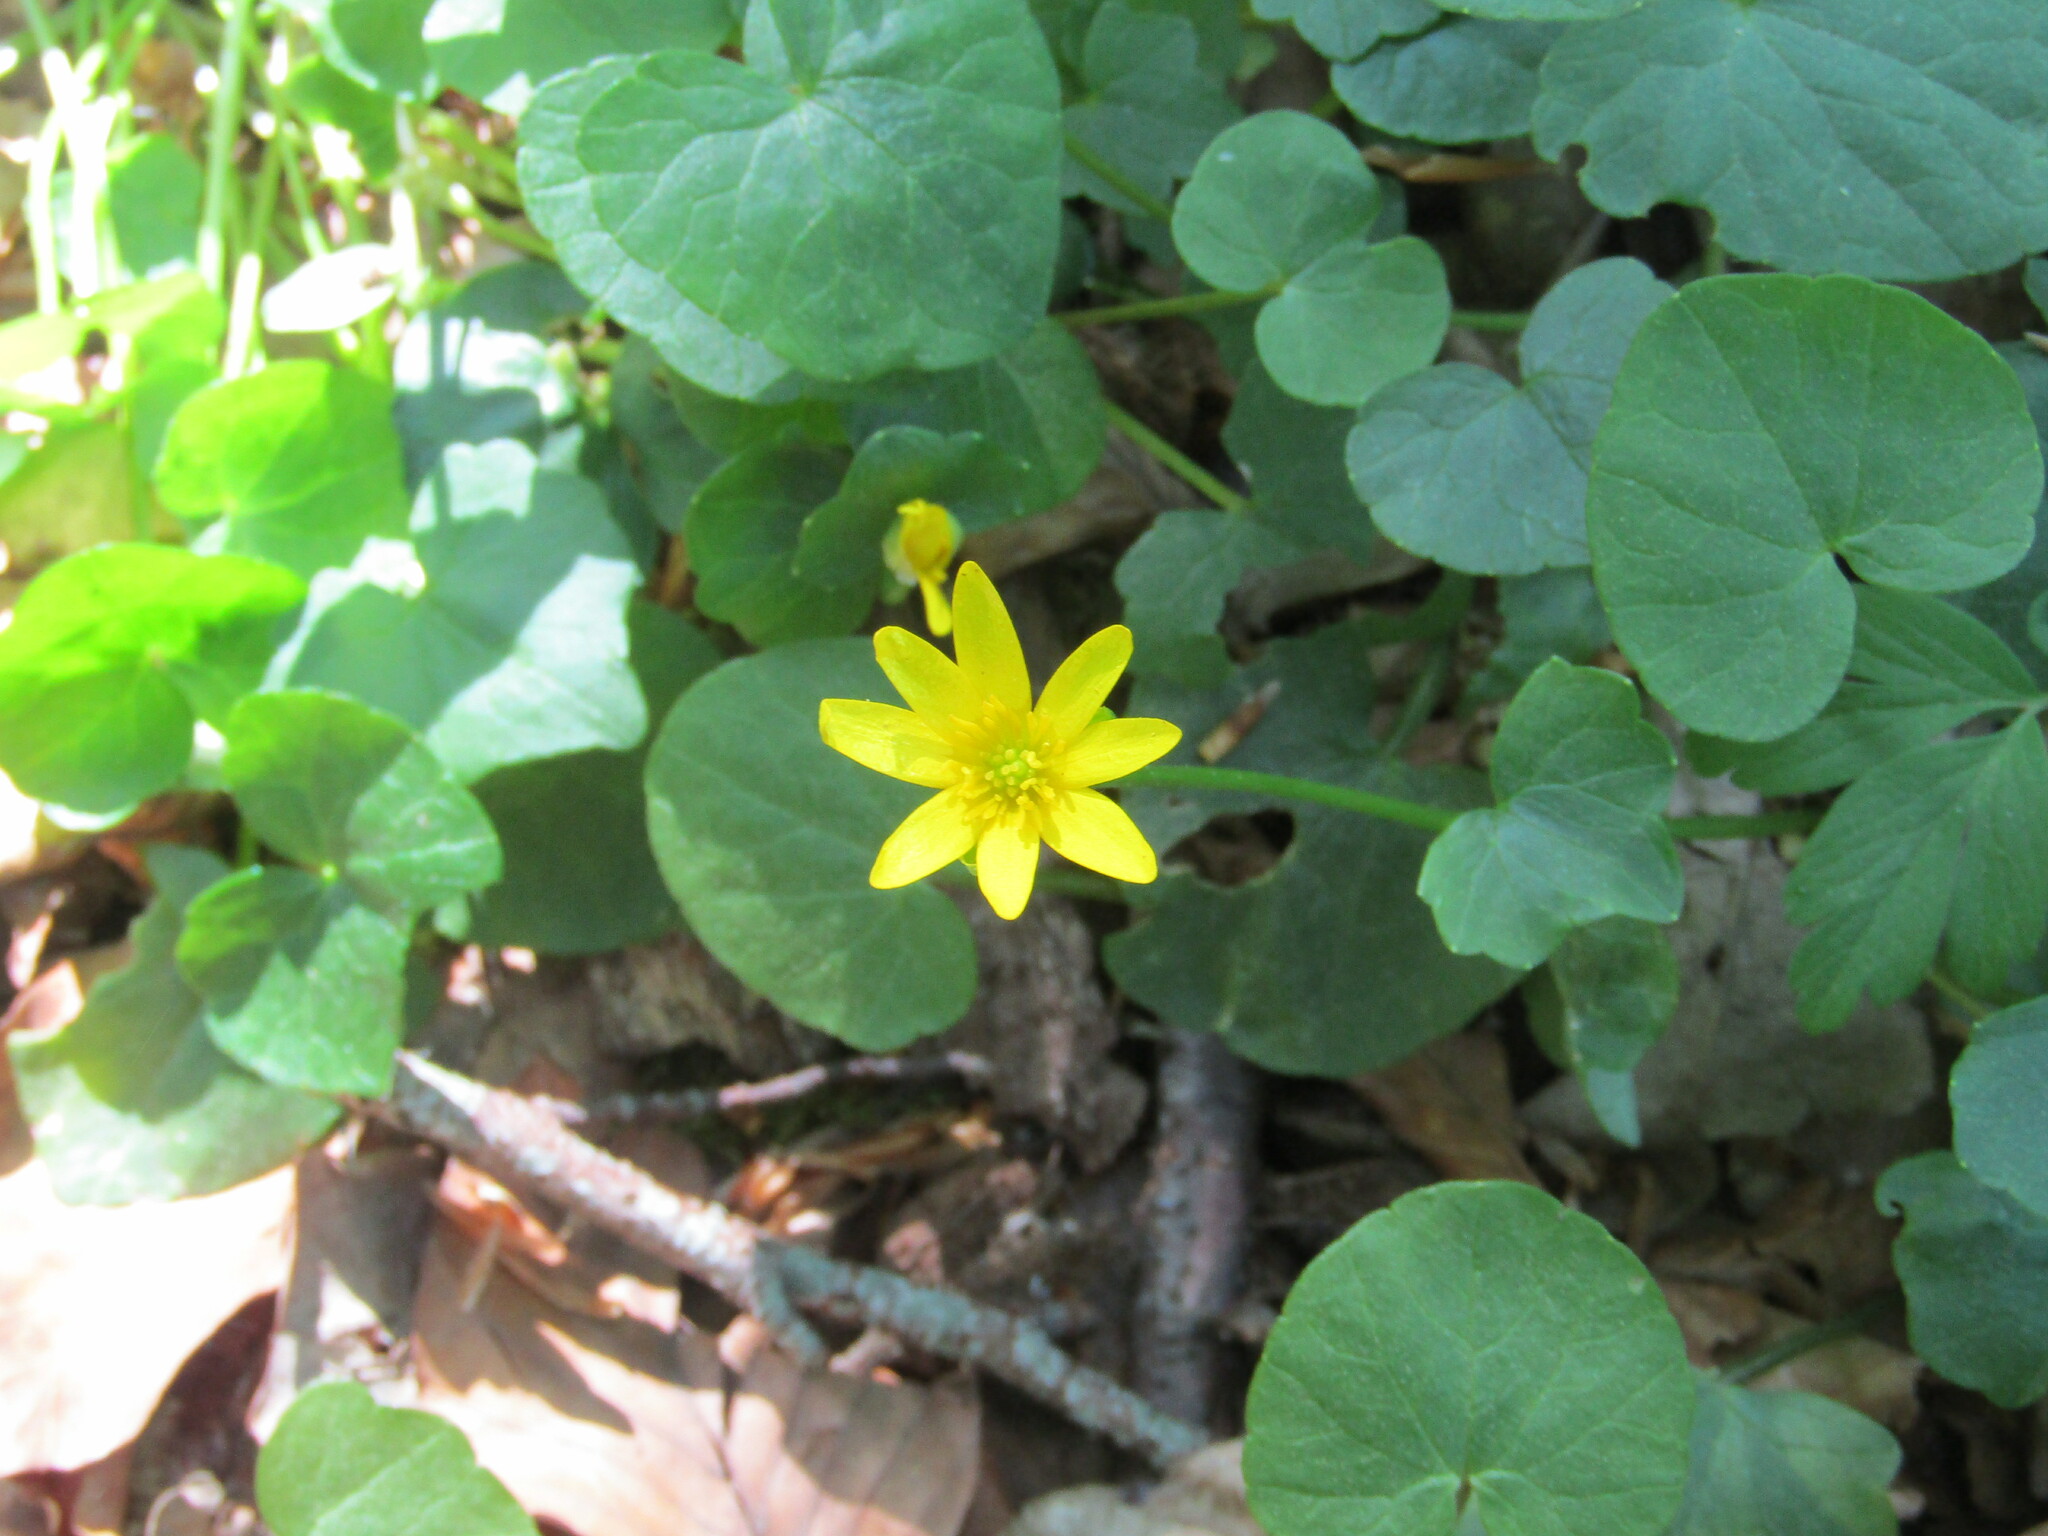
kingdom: Plantae
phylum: Tracheophyta
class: Magnoliopsida
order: Ranunculales
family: Ranunculaceae
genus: Ficaria
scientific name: Ficaria verna
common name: Lesser celandine
